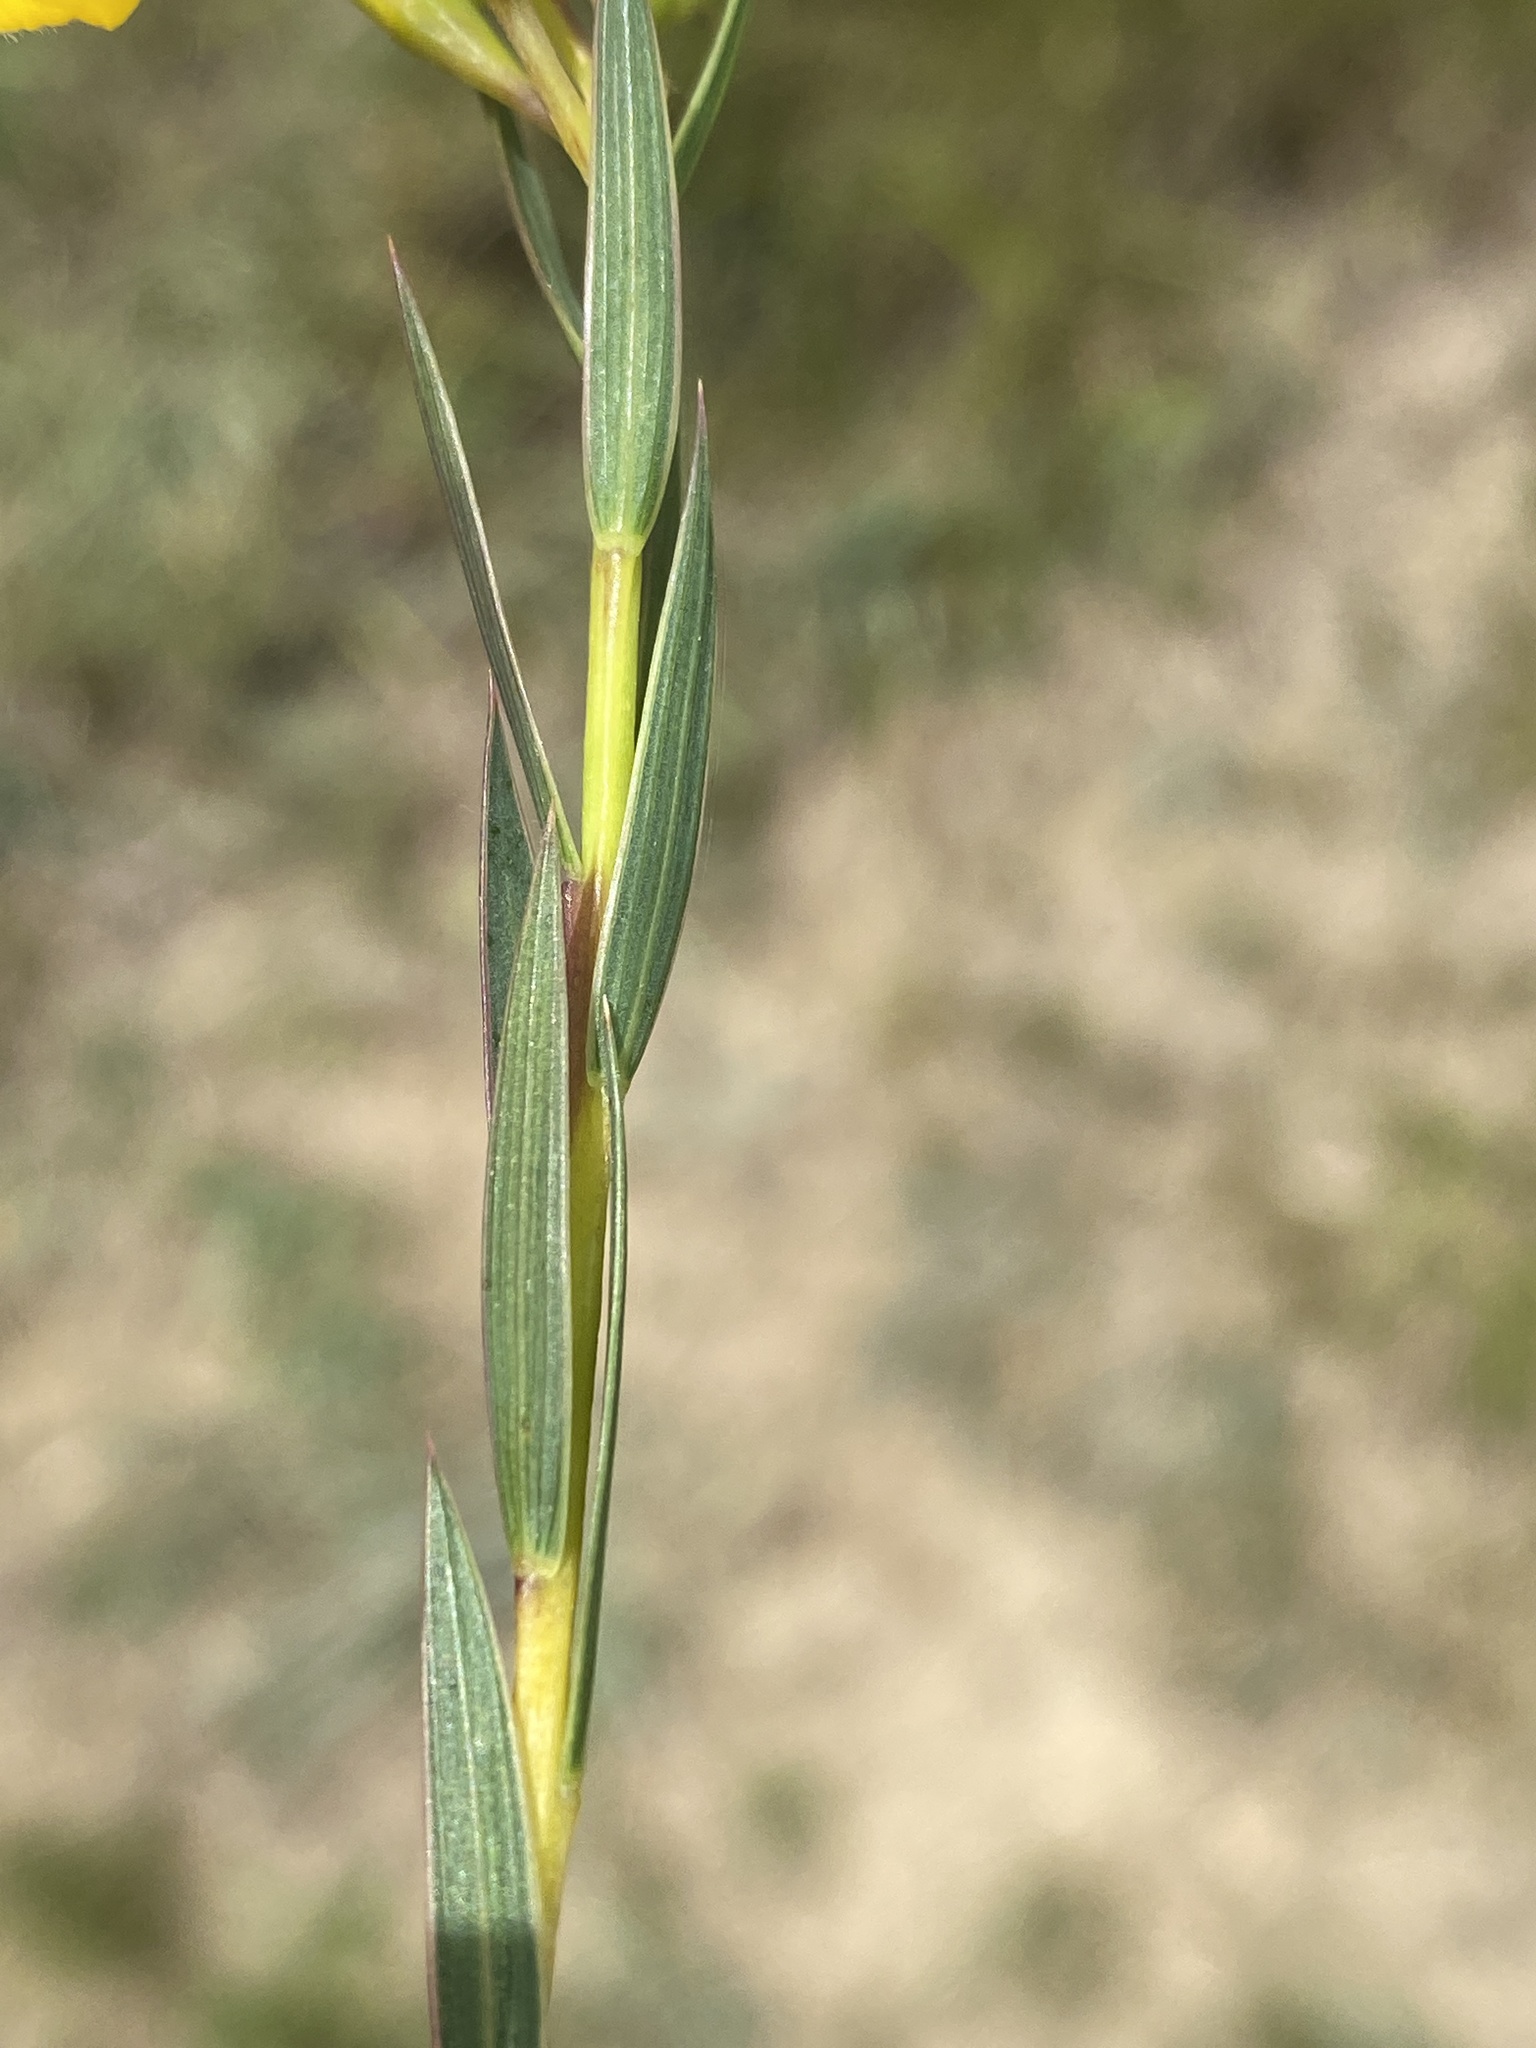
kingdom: Plantae
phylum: Tracheophyta
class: Magnoliopsida
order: Fabales
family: Fabaceae
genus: Aspalathus
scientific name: Aspalathus angustifolia
